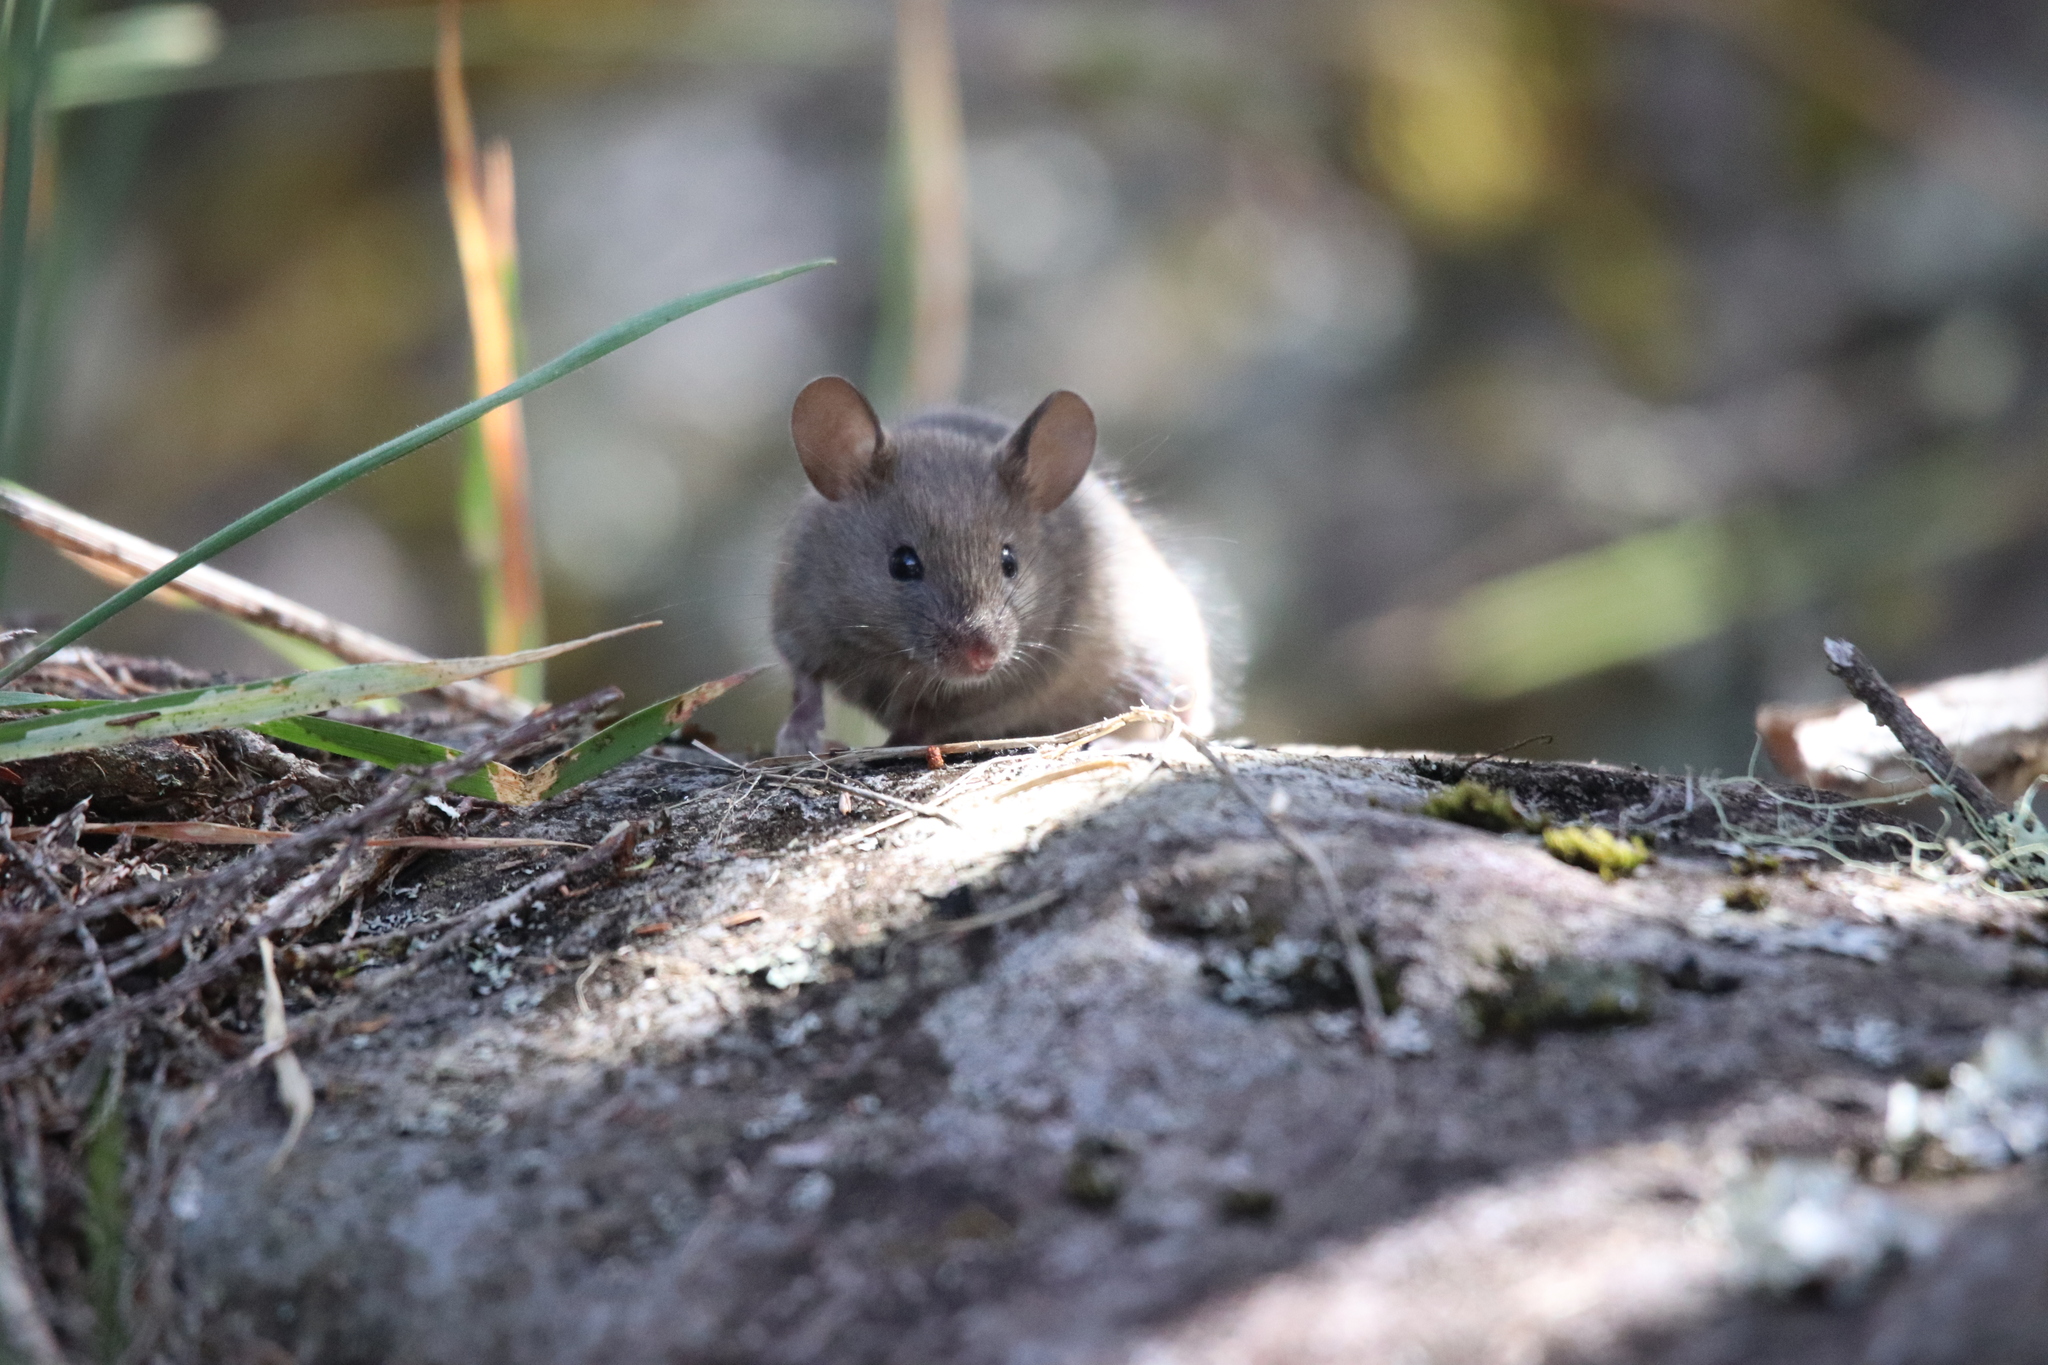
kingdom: Animalia
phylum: Chordata
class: Mammalia
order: Rodentia
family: Muridae
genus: Mus
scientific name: Mus musculus
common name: House mouse
